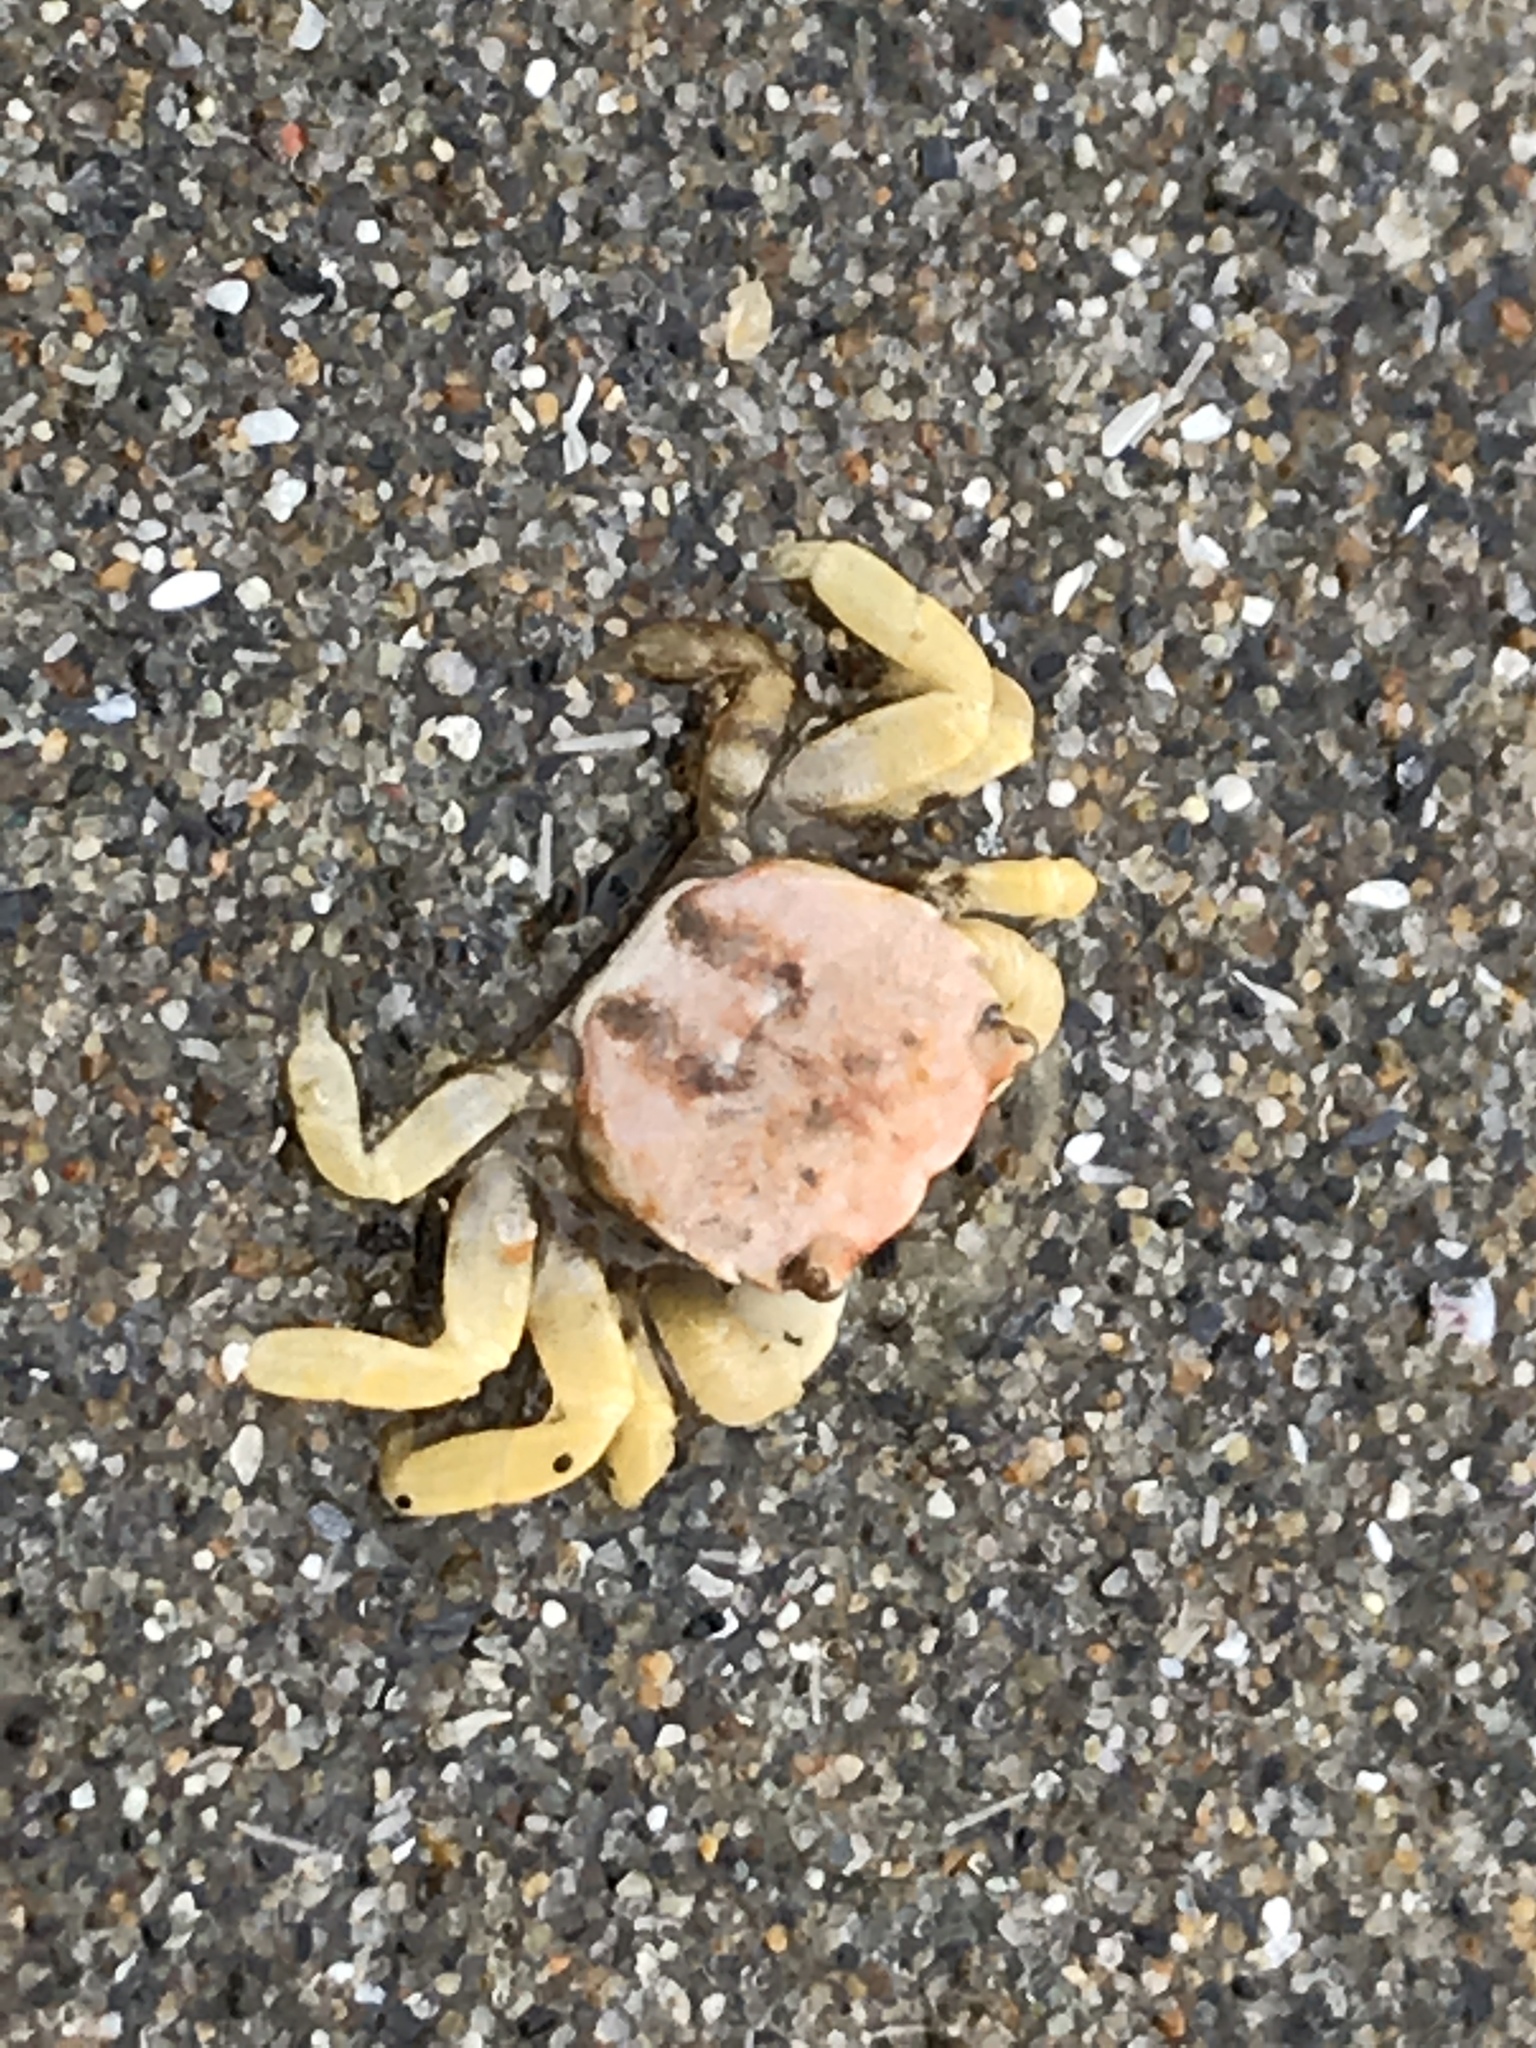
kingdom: Animalia
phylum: Arthropoda
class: Malacostraca
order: Decapoda
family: Varunidae
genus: Hemigrapsus
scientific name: Hemigrapsus oregonensis
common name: Yellow shore crab
